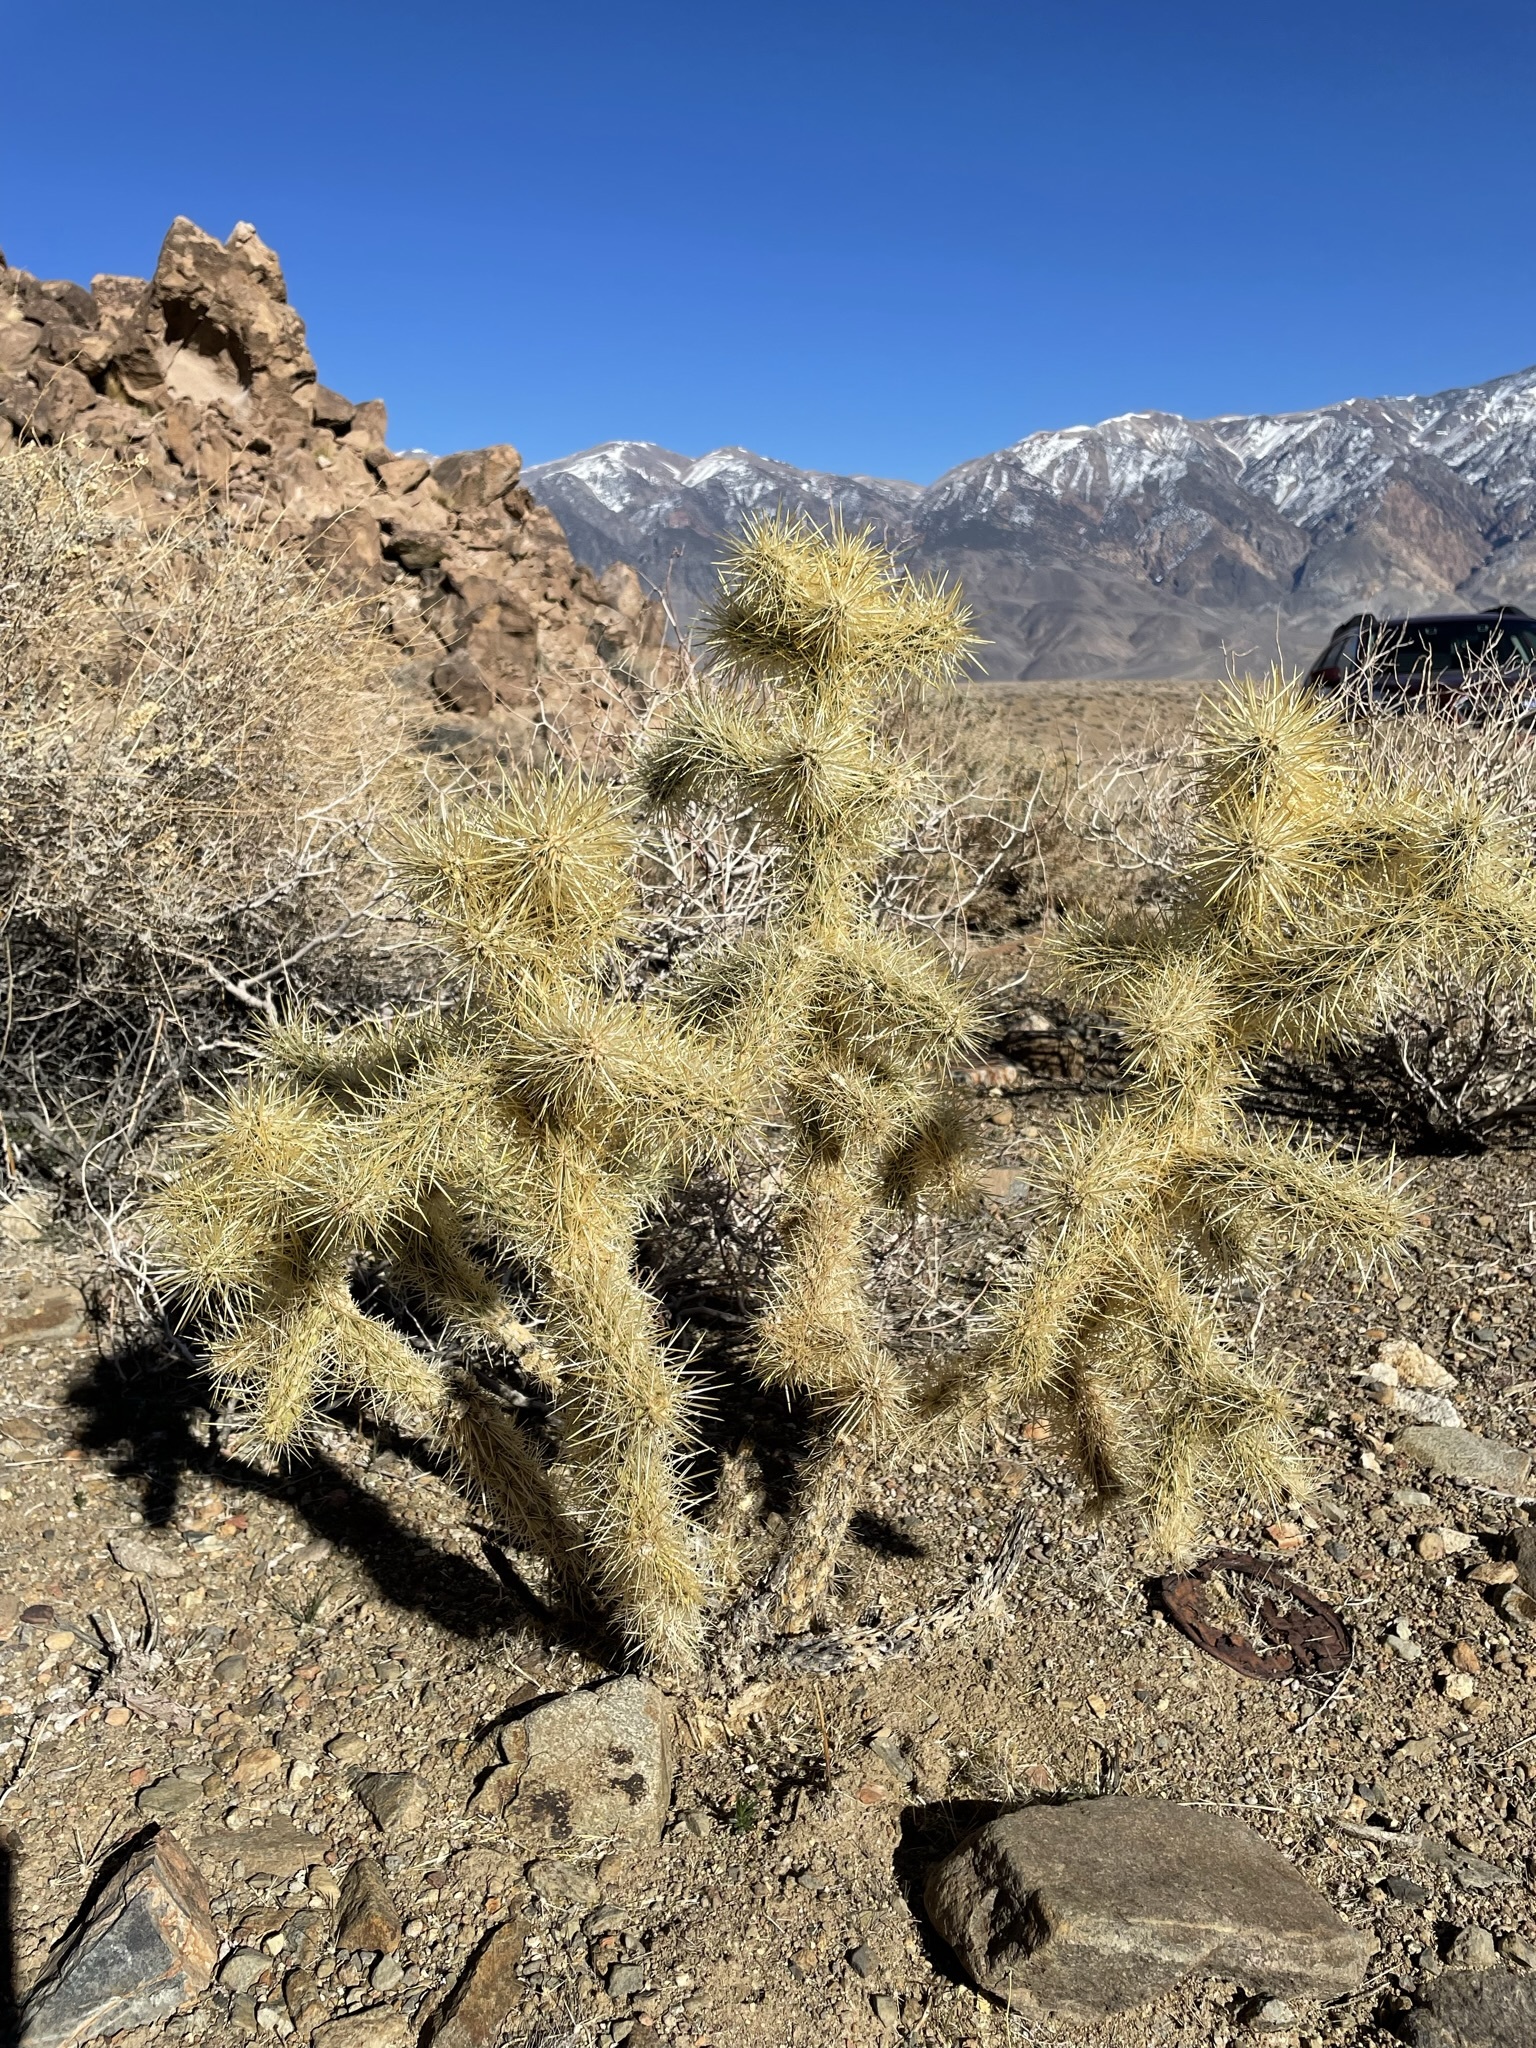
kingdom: Plantae
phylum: Tracheophyta
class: Magnoliopsida
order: Caryophyllales
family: Cactaceae
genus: Cylindropuntia
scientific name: Cylindropuntia echinocarpa
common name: Ground cholla
